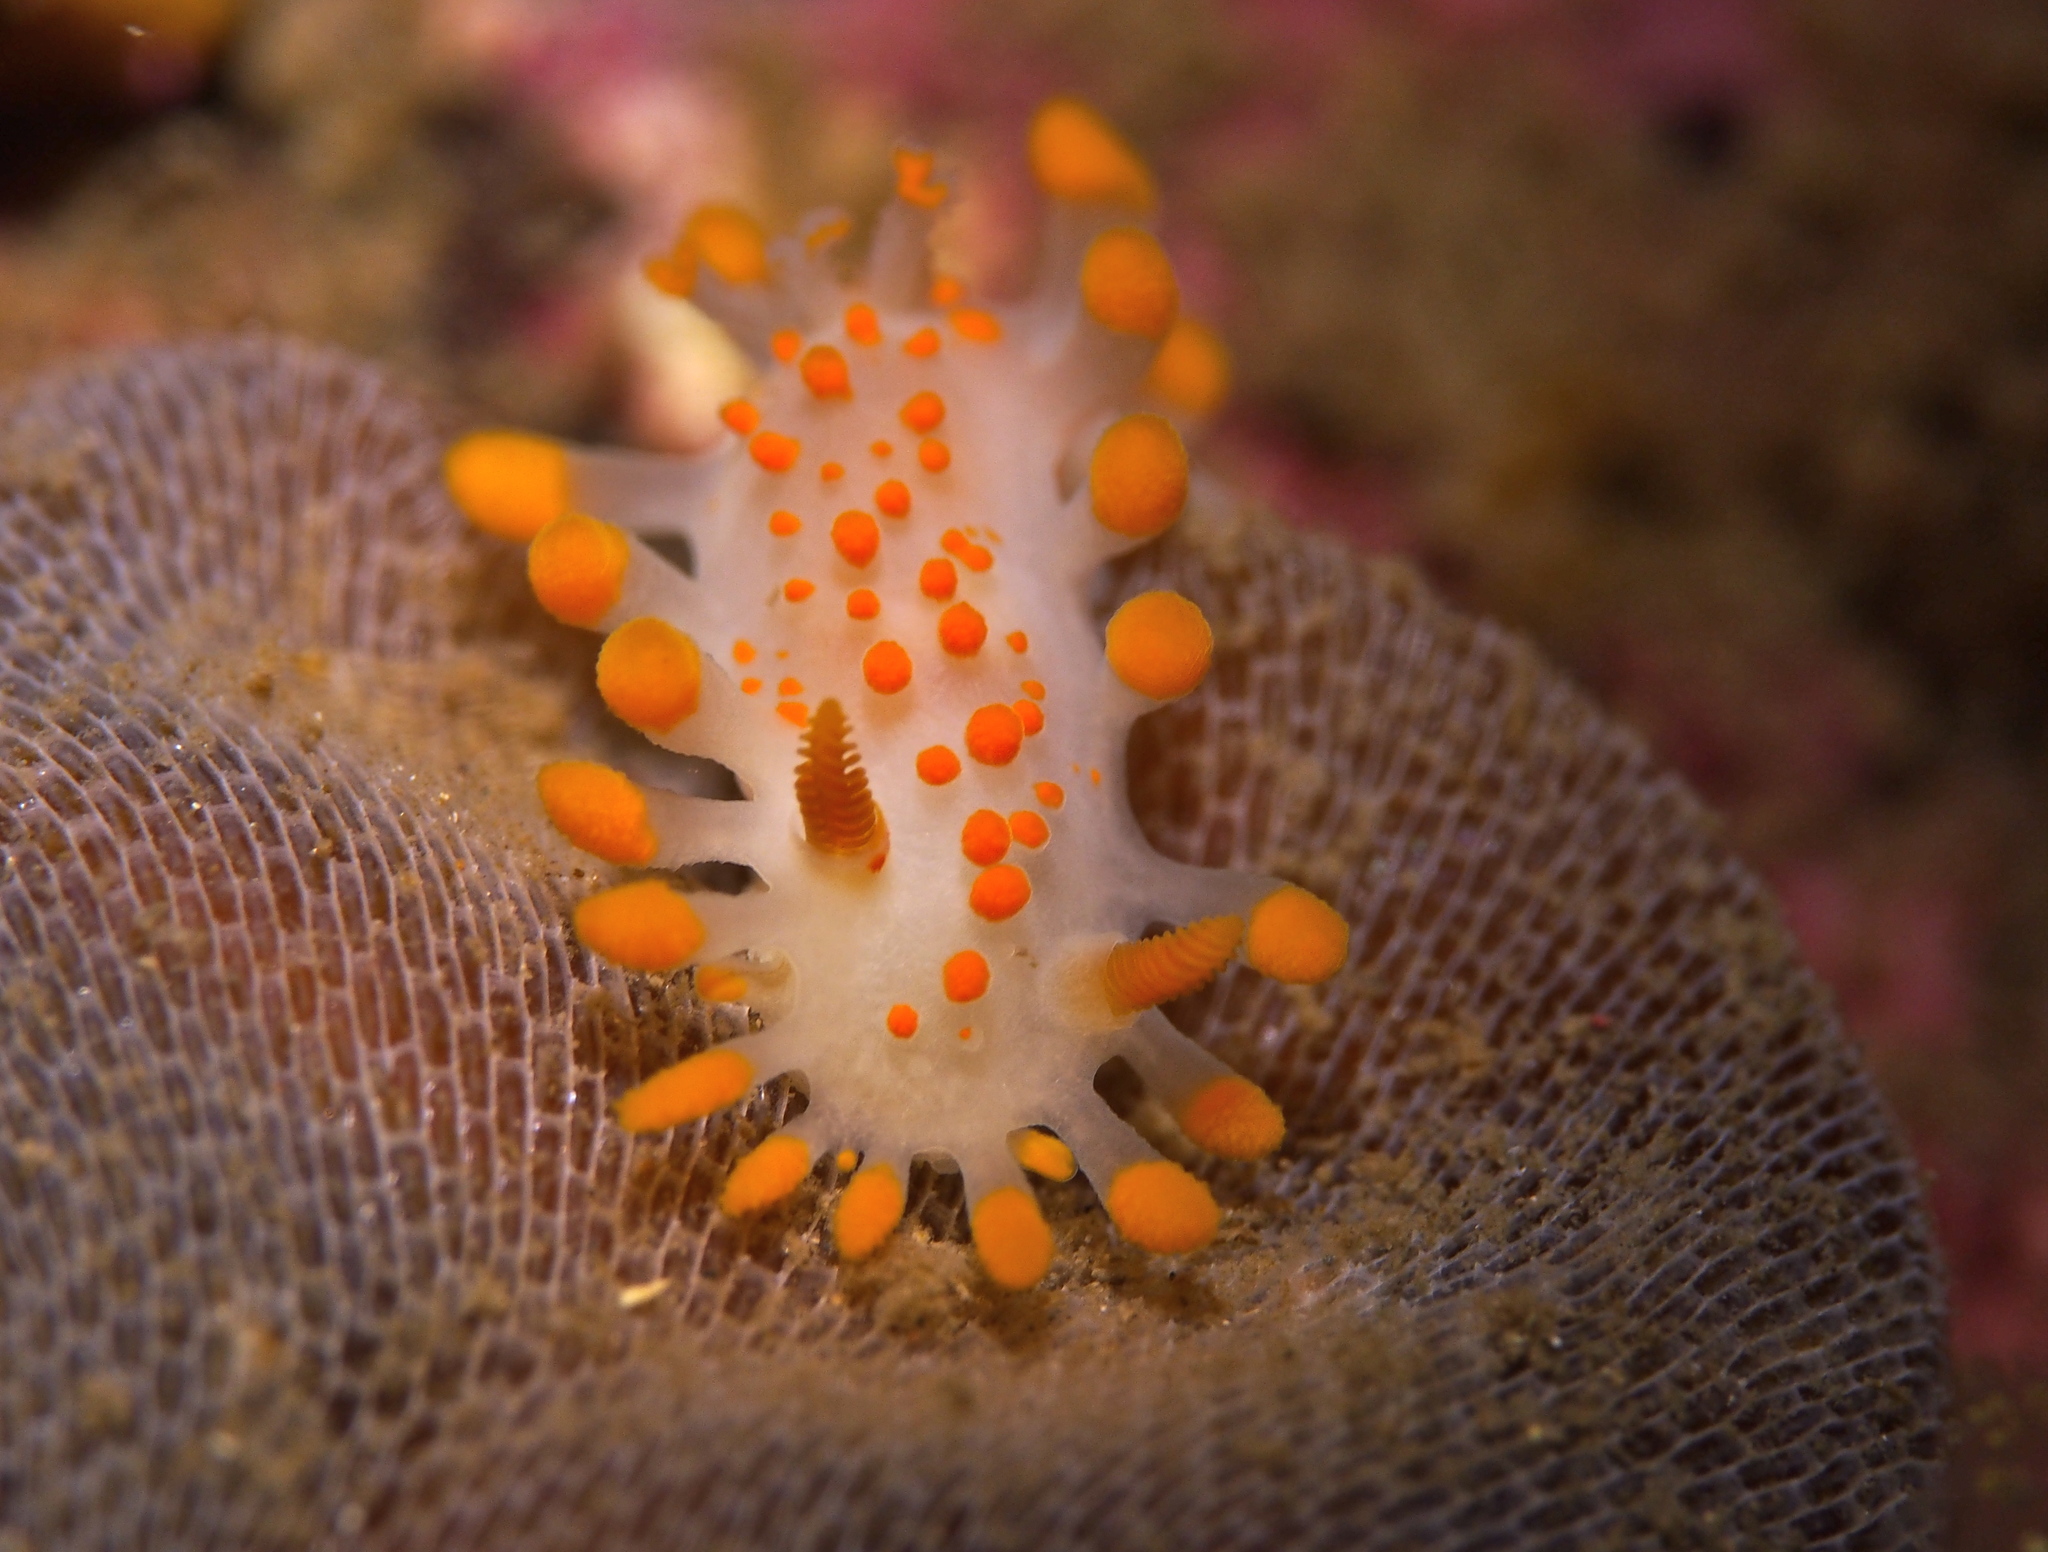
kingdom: Animalia
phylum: Mollusca
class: Gastropoda
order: Nudibranchia
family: Polyceridae
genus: Limacia
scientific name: Limacia clavigera
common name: Orange-clubbed sea slug
